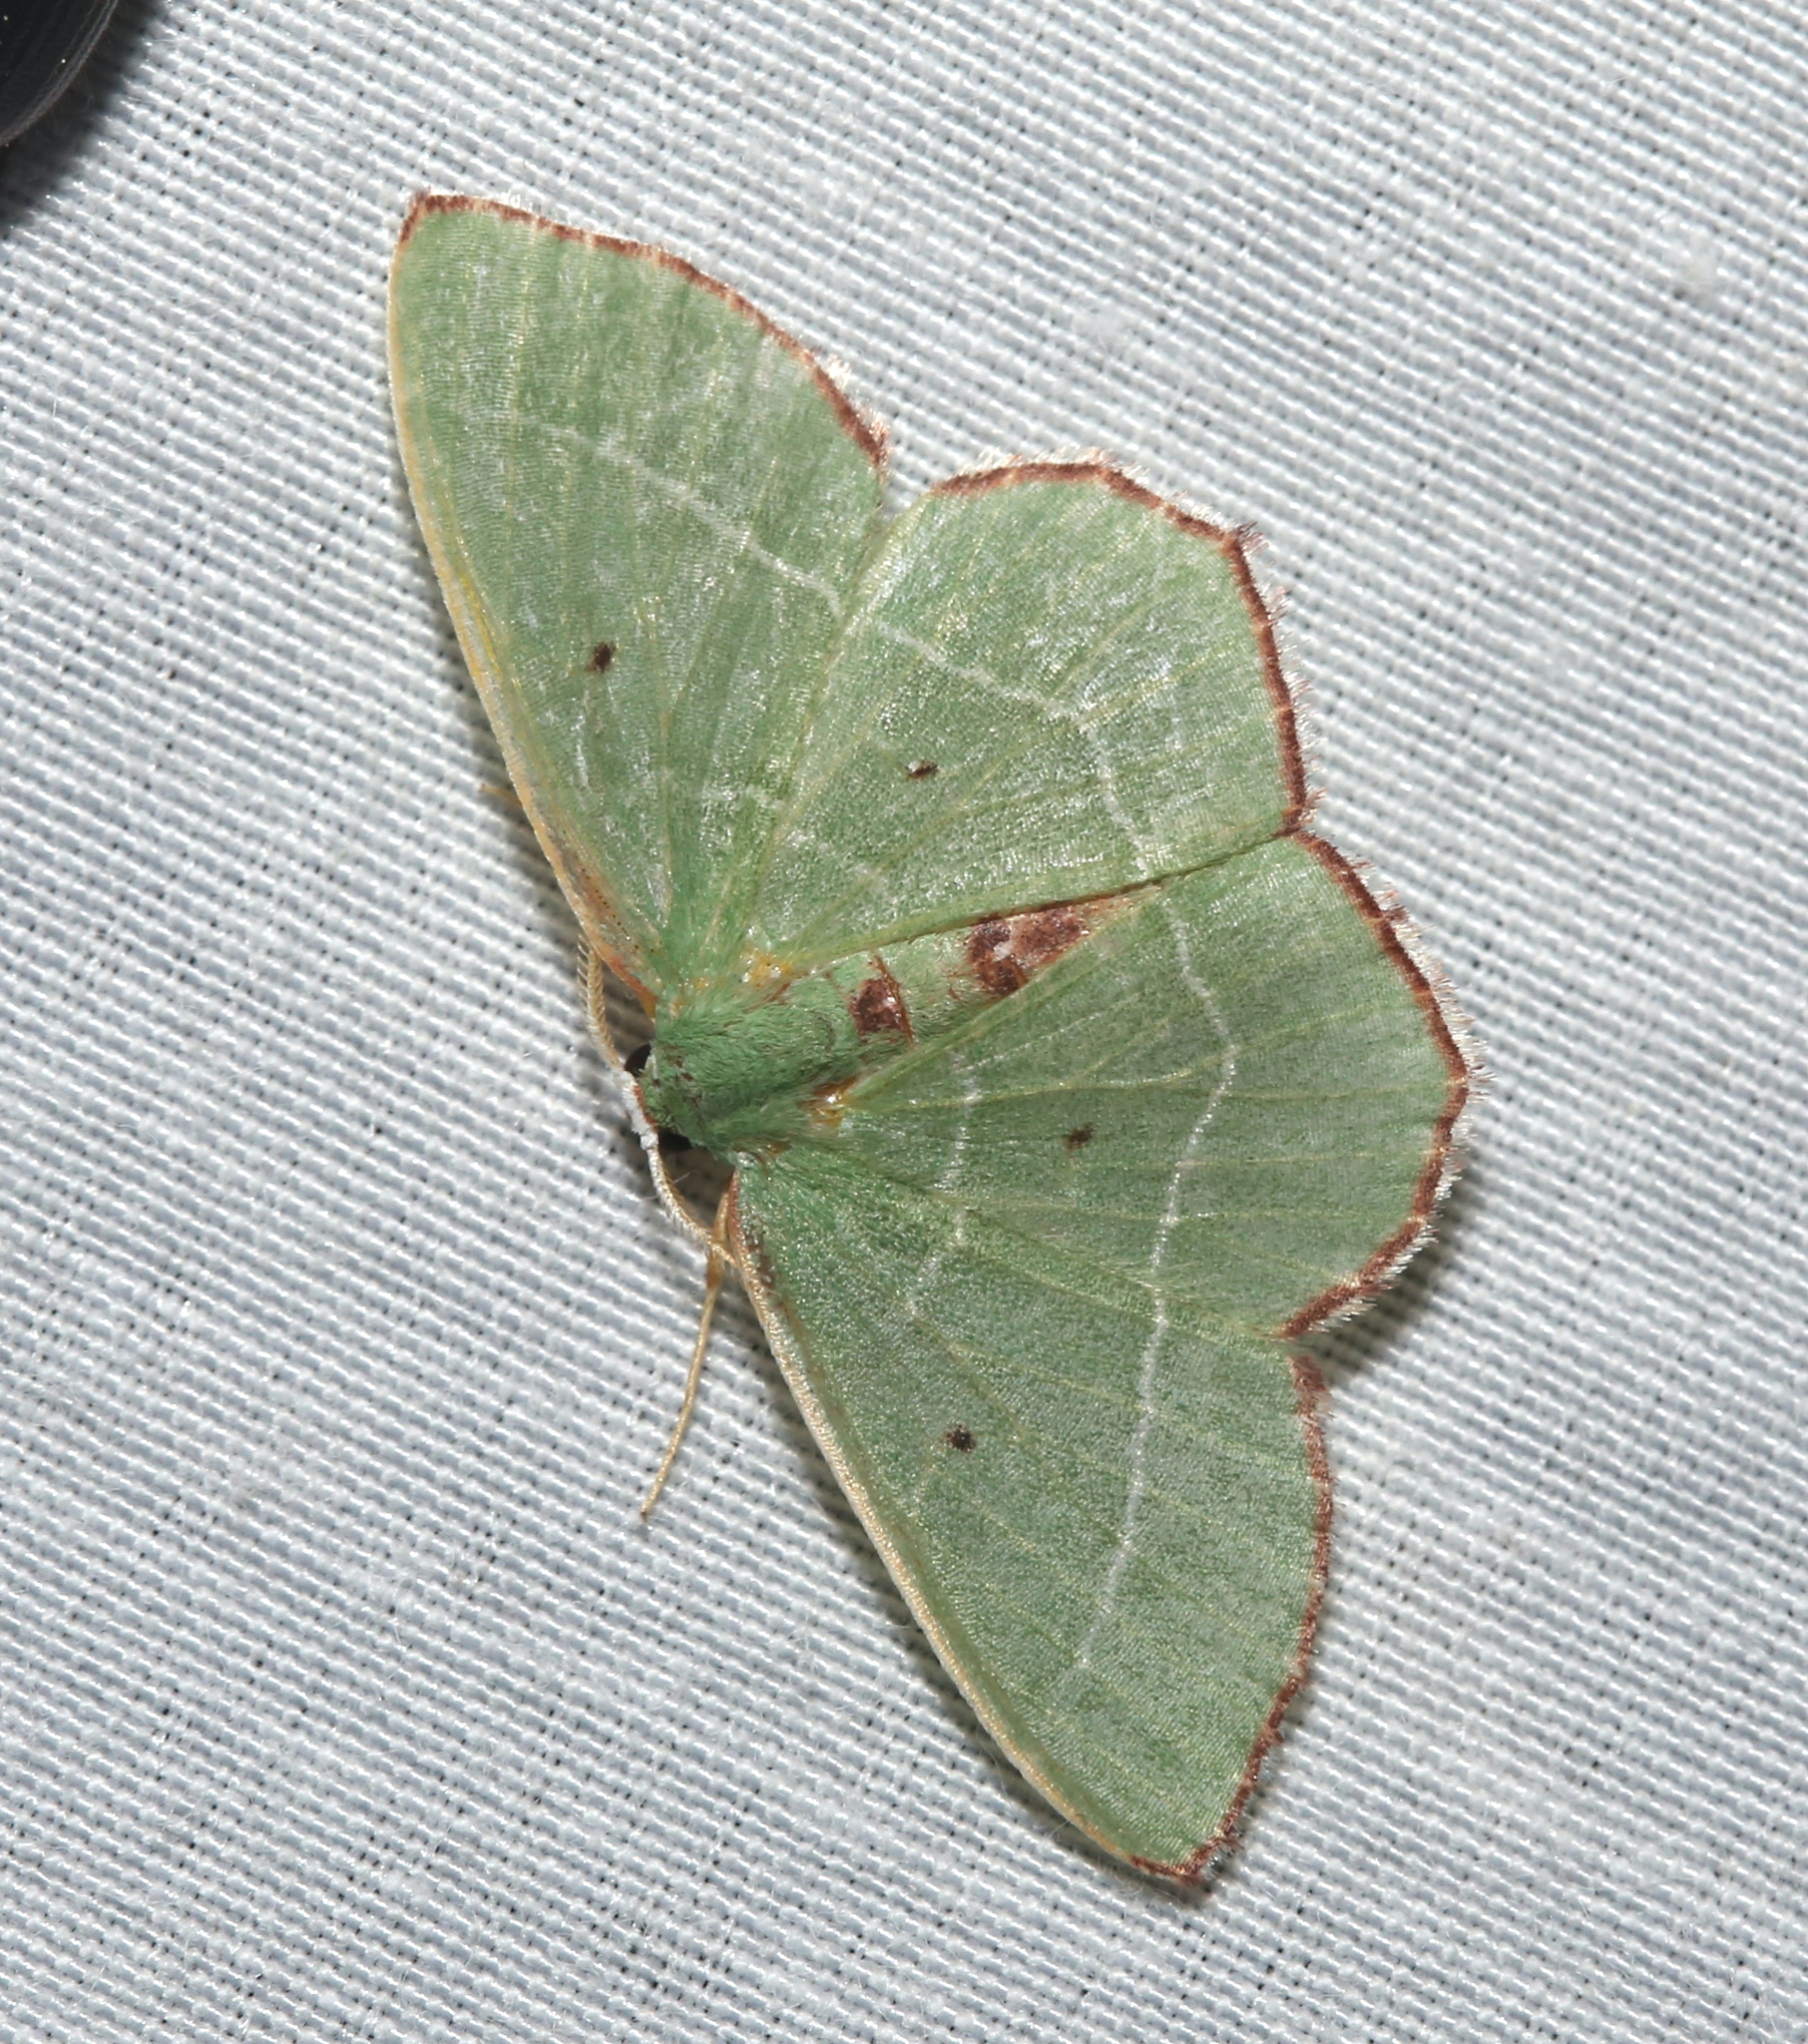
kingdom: Animalia
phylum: Arthropoda
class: Insecta
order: Lepidoptera
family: Geometridae
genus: Nemoria
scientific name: Nemoria saturiba
